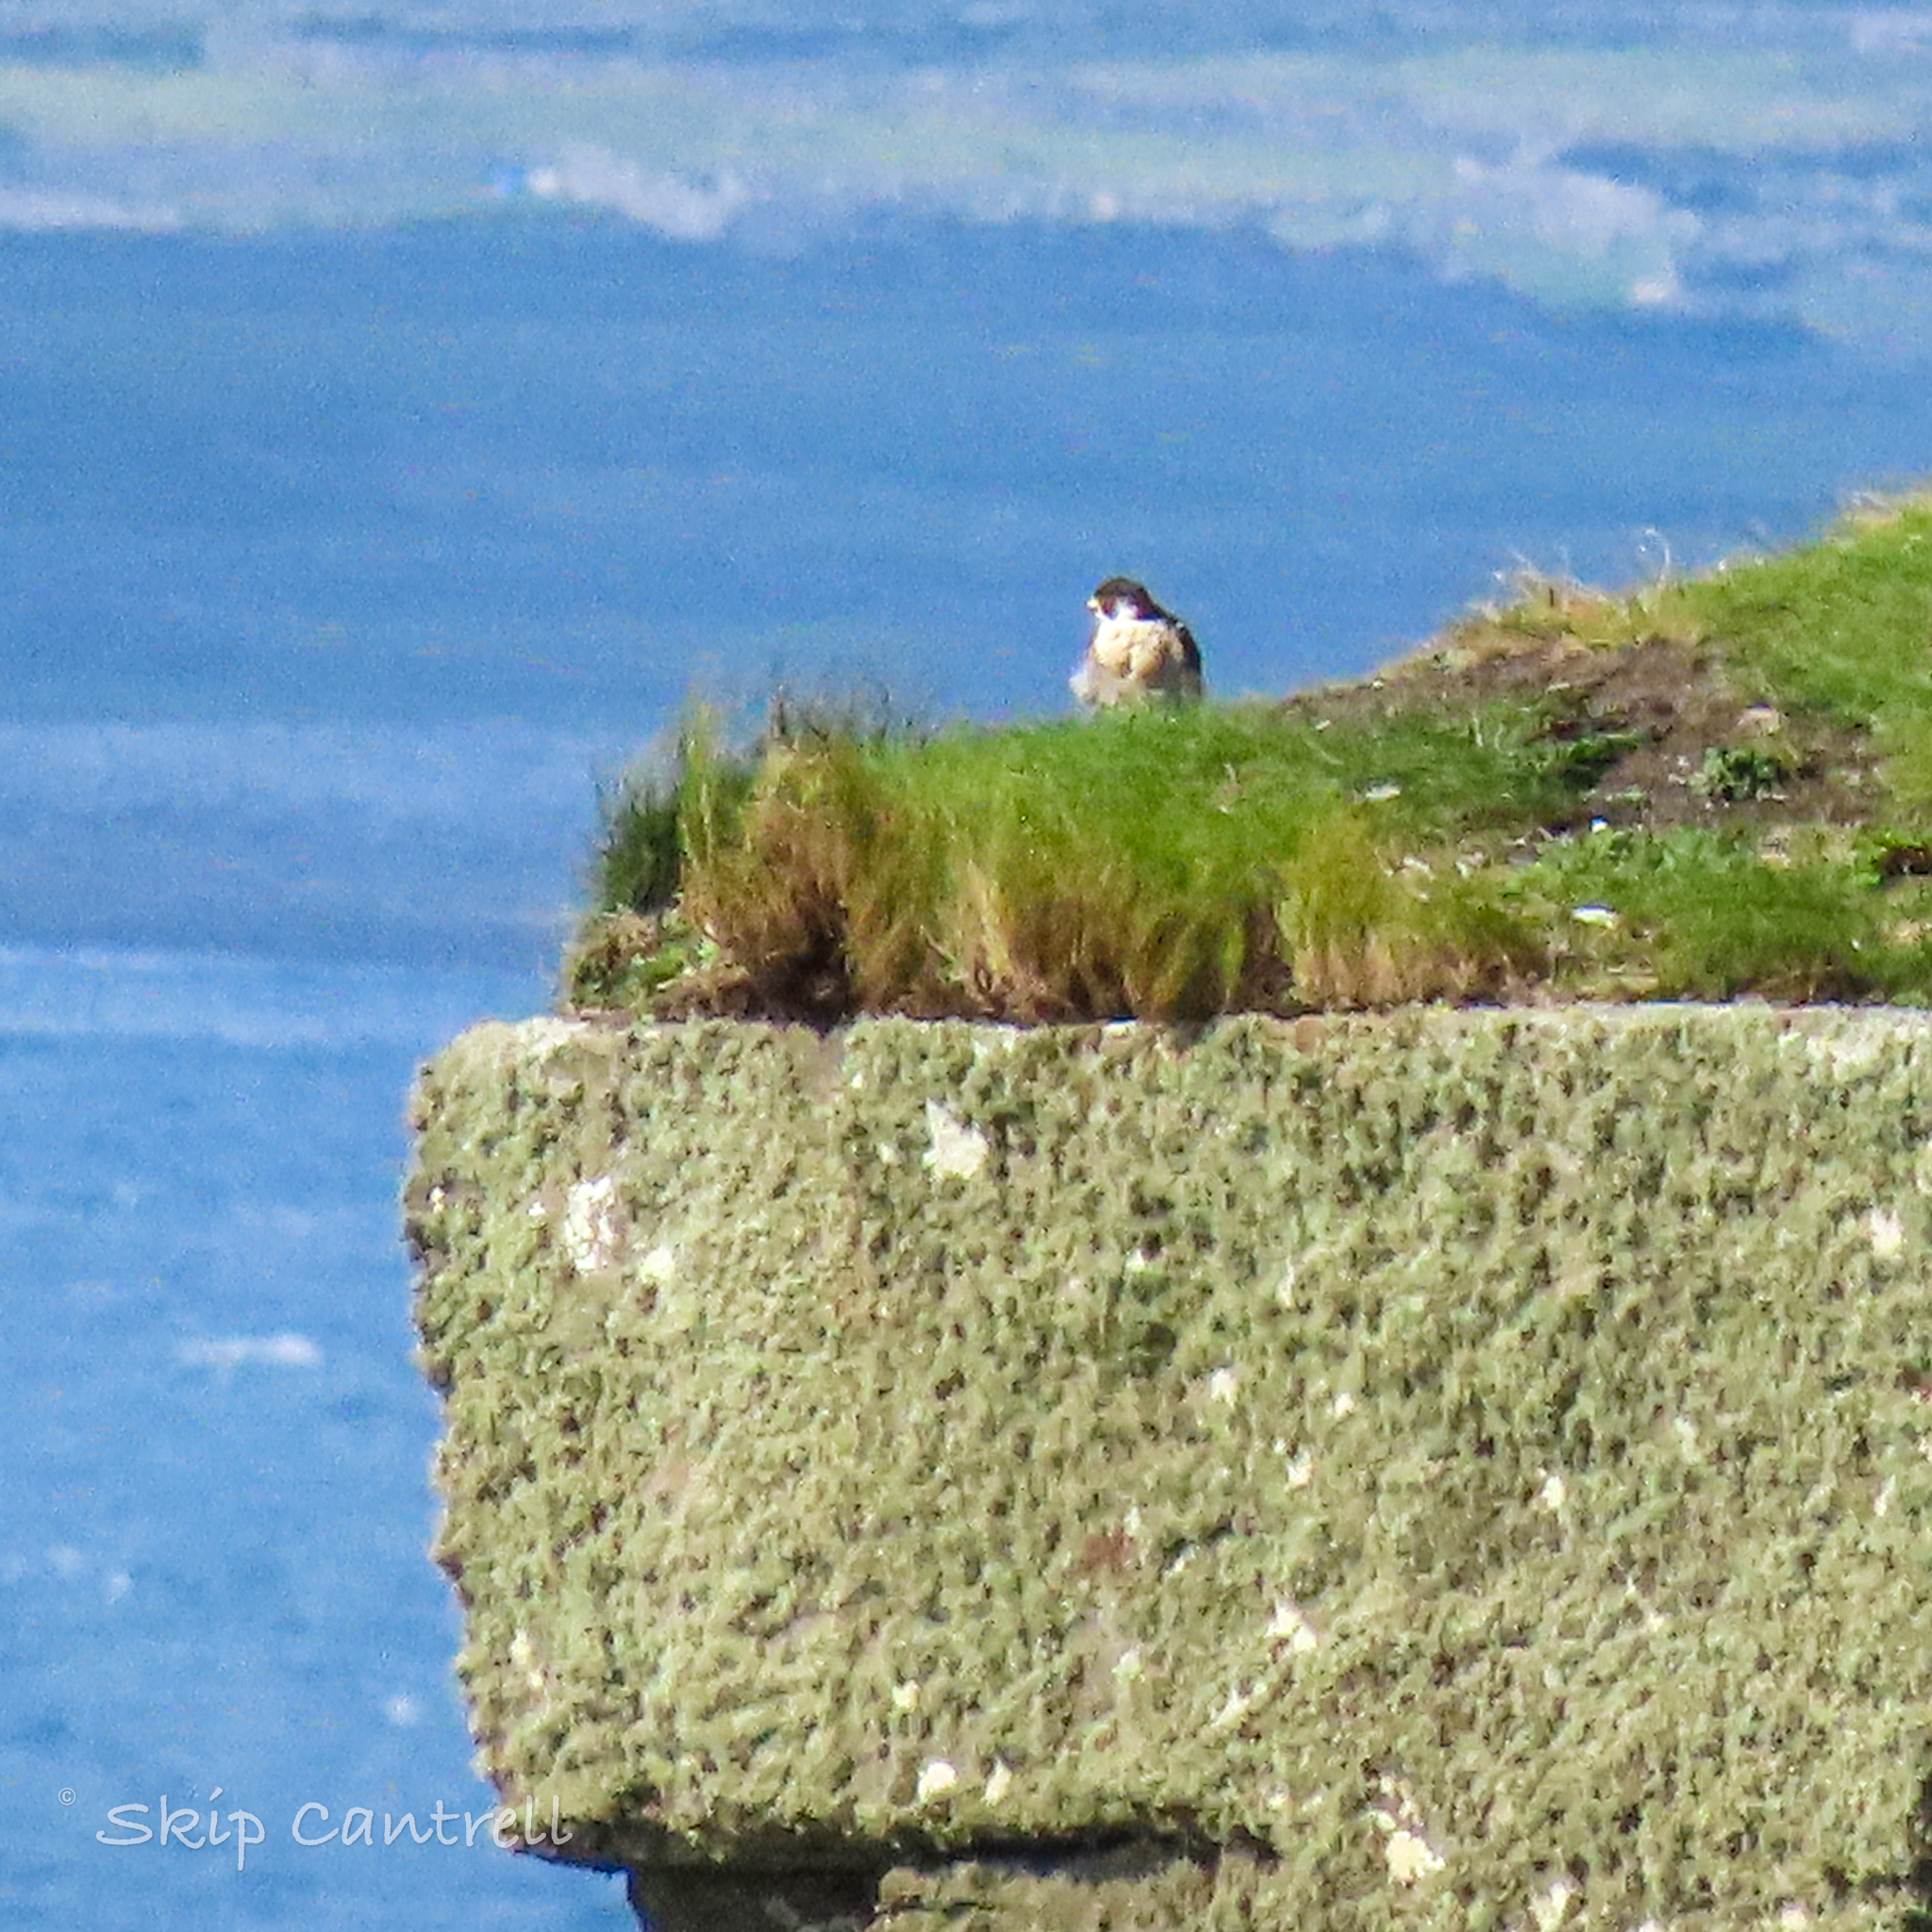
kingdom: Animalia
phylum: Chordata
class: Aves
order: Falconiformes
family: Falconidae
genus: Falco
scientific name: Falco peregrinus
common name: Peregrine falcon
